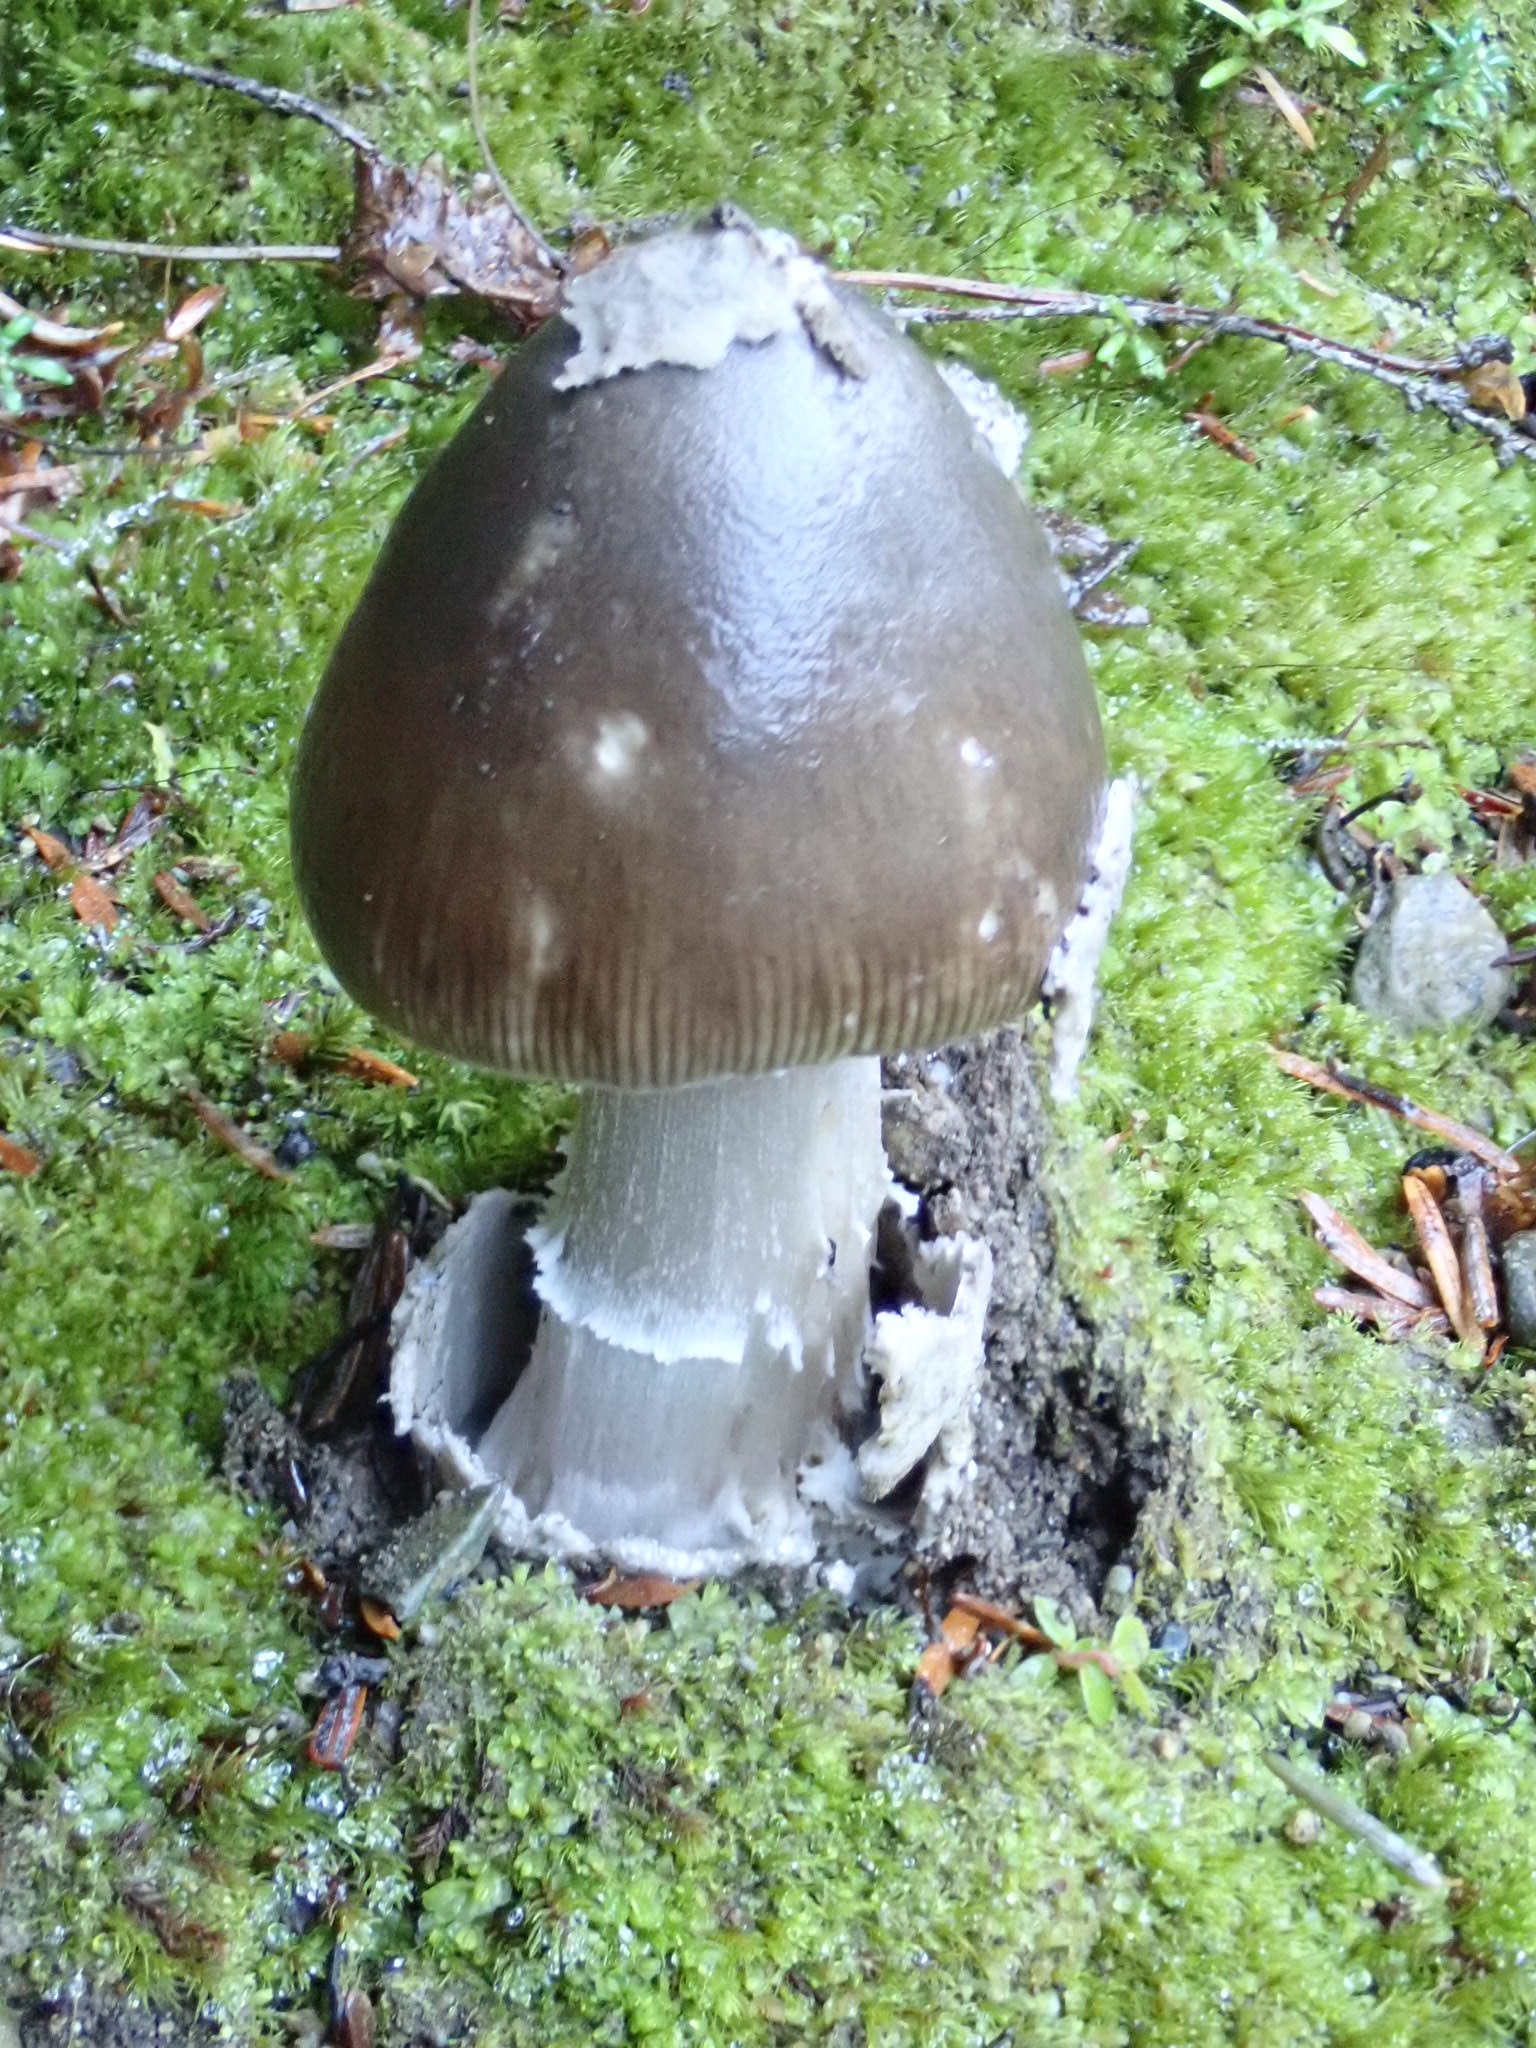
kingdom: Fungi
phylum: Basidiomycota
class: Agaricomycetes
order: Agaricales
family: Amanitaceae
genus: Amanita
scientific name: Amanita vaginata
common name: Grisette
